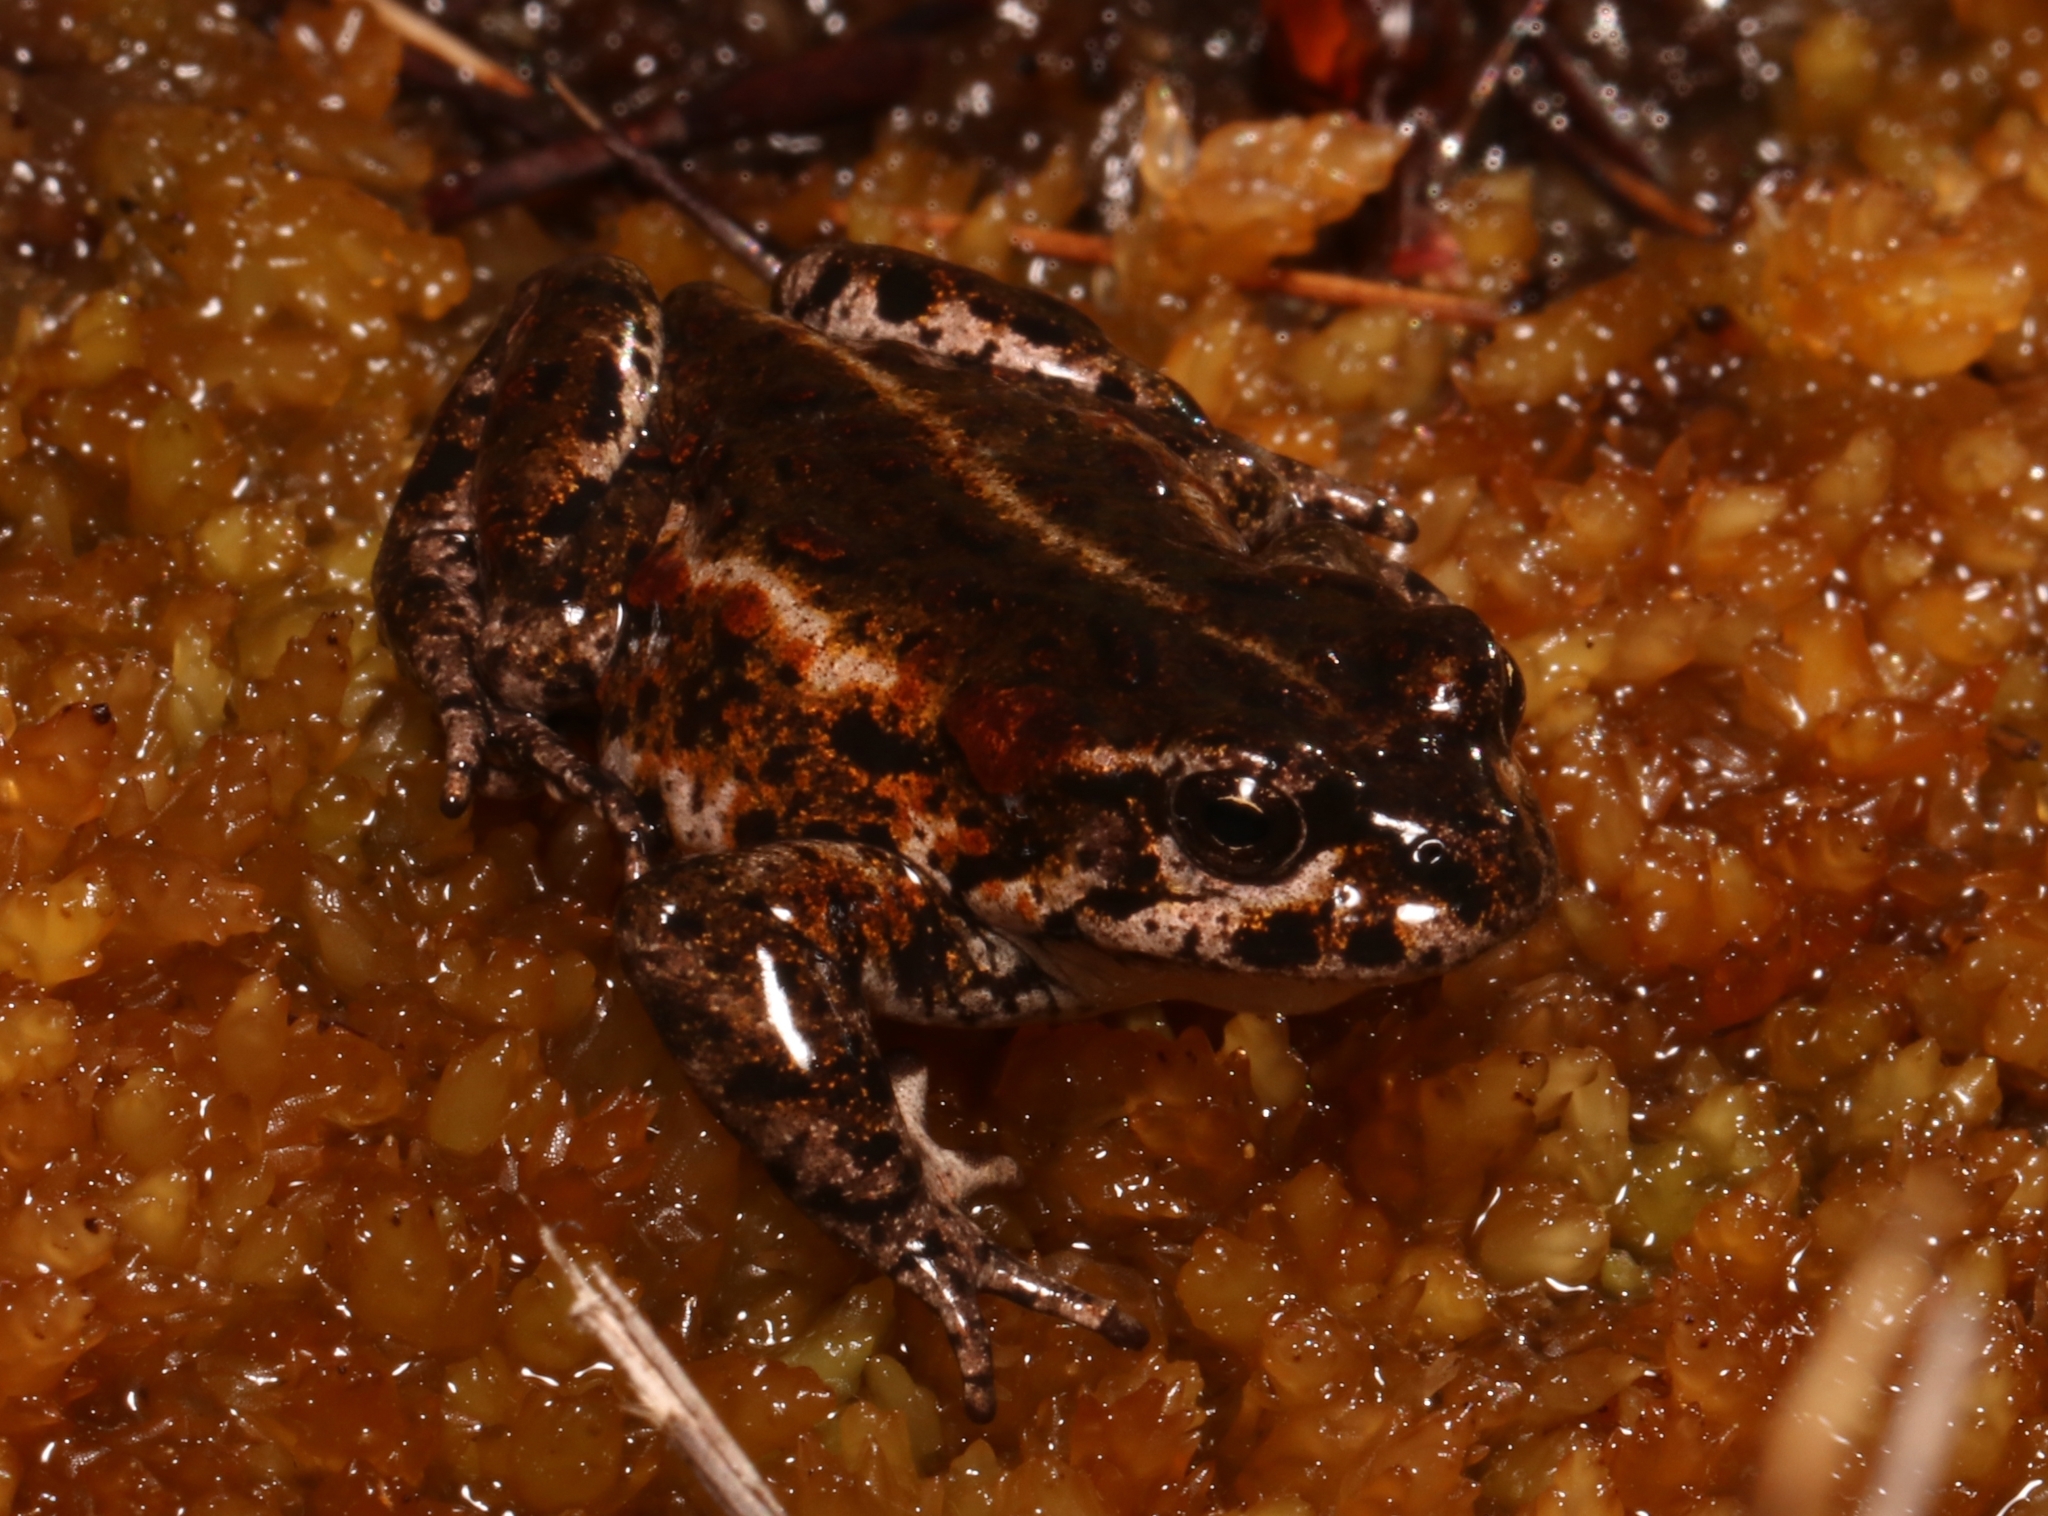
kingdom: Animalia
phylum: Chordata
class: Amphibia
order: Anura
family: Bufonidae
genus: Capensibufo
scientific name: Capensibufo tradouwi
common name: Tradouw mountain toadlet
